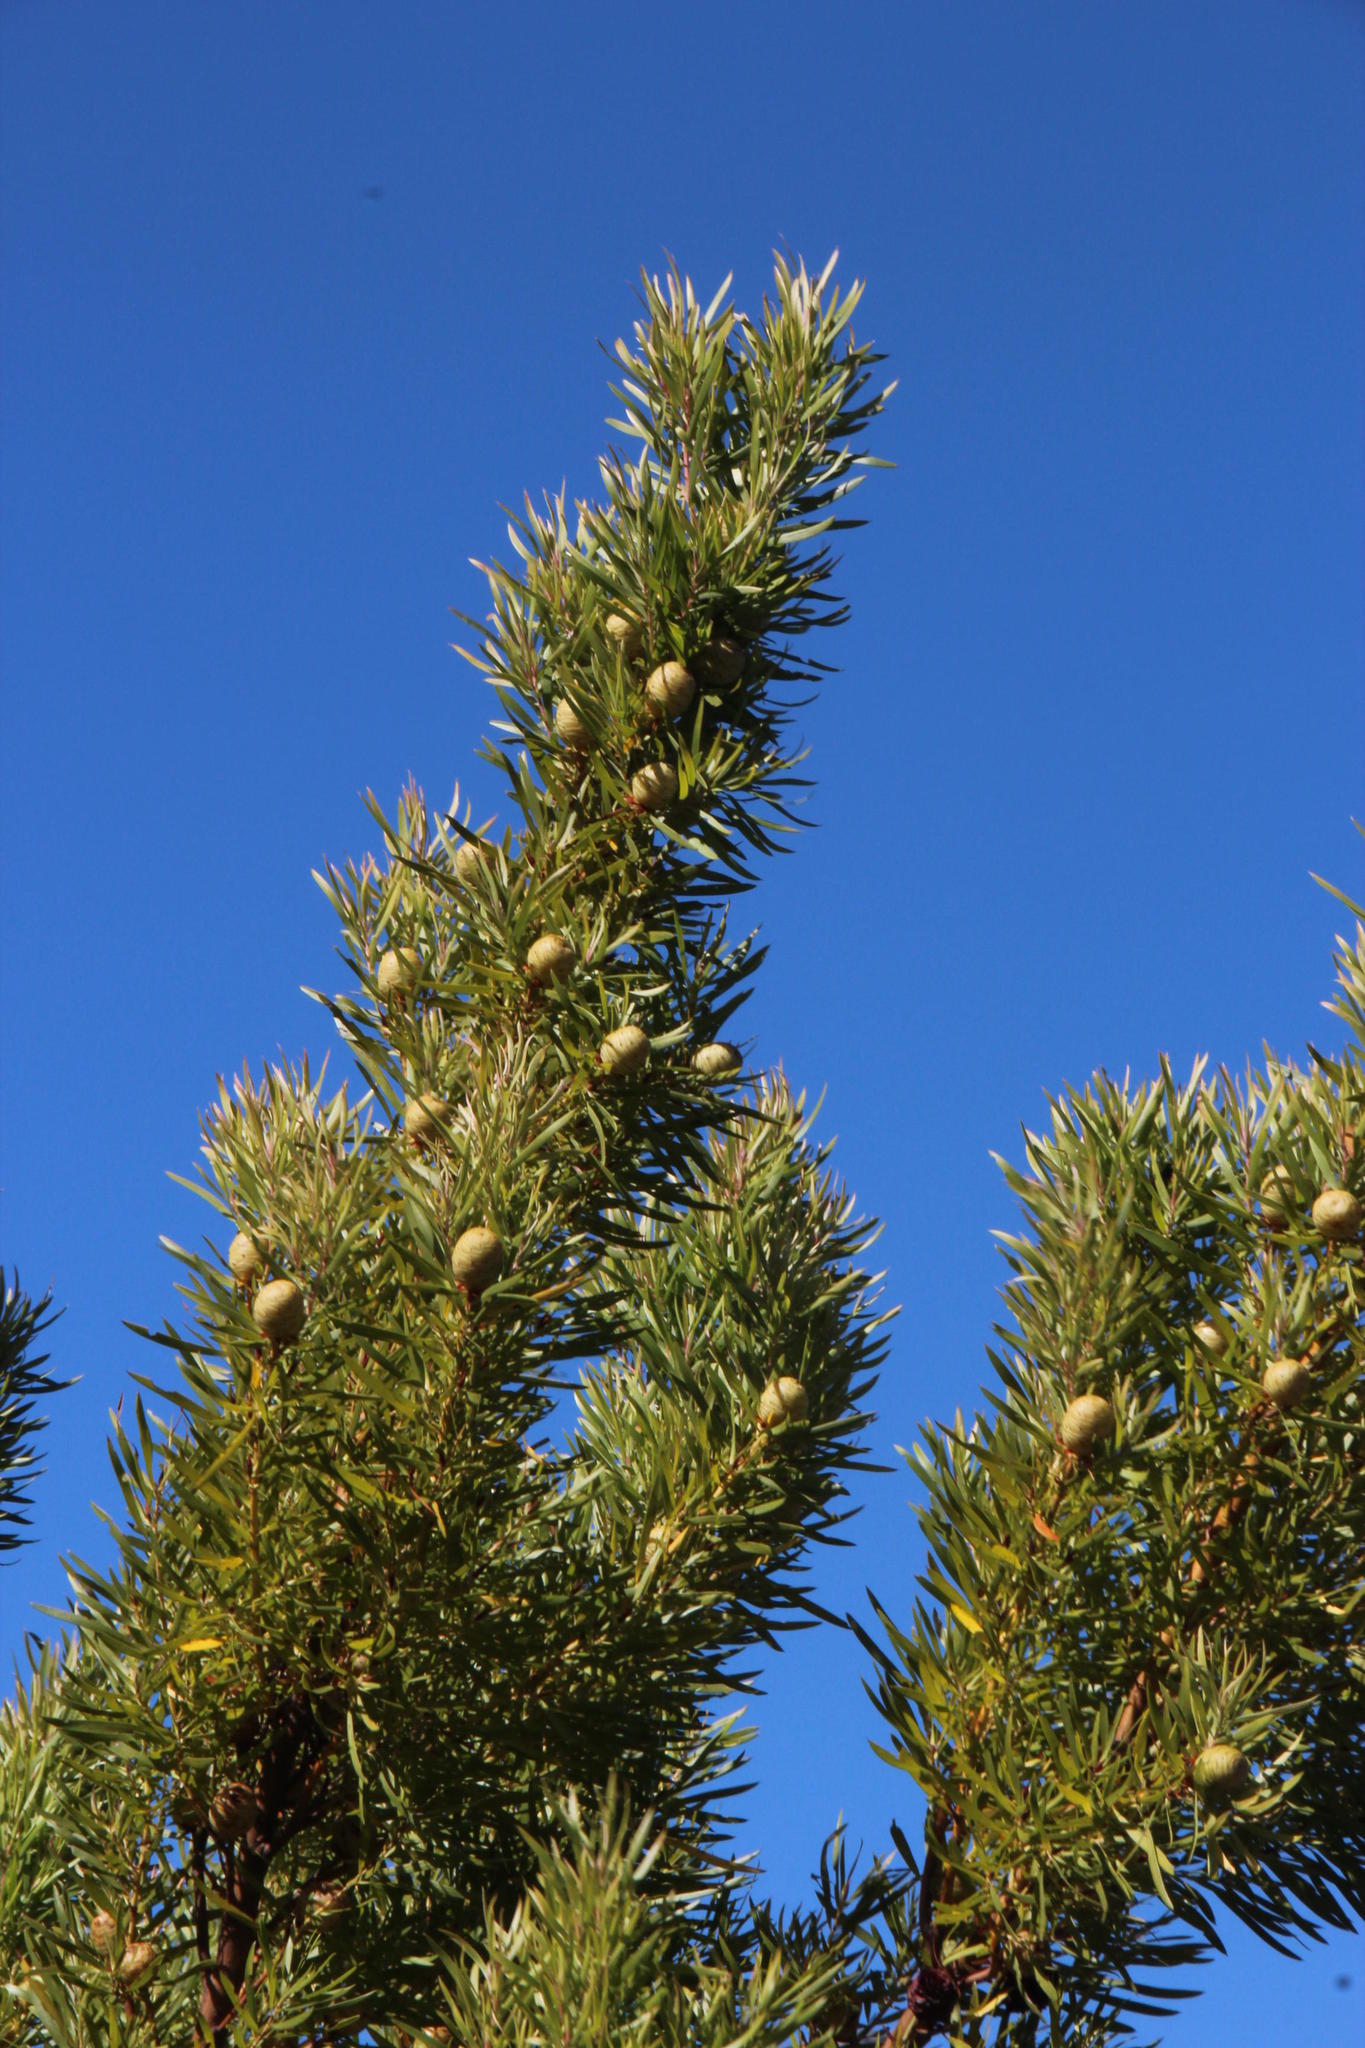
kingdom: Plantae
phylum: Tracheophyta
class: Magnoliopsida
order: Proteales
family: Proteaceae
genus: Leucadendron
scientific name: Leucadendron salicifolium
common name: Common stream conebush
